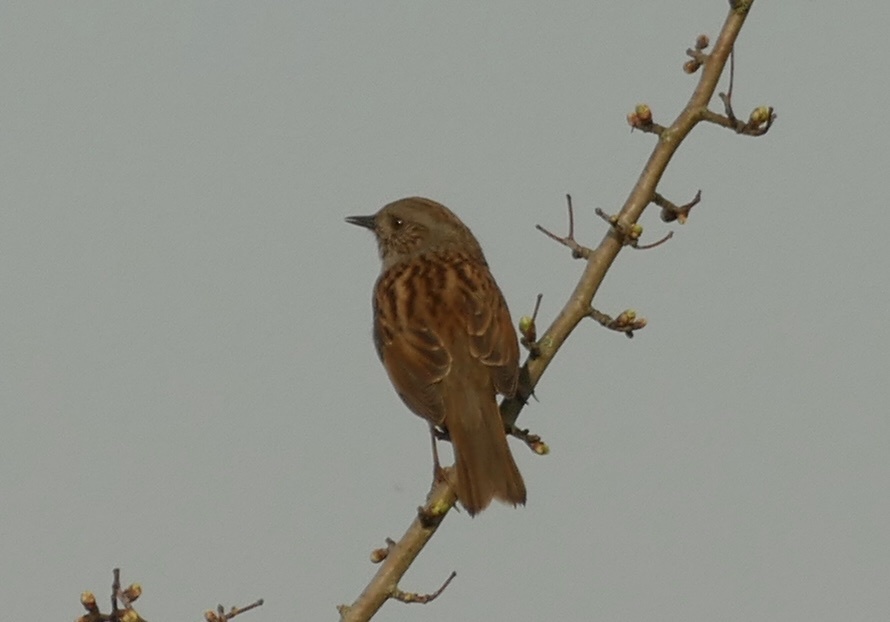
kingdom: Animalia
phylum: Chordata
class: Aves
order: Passeriformes
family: Prunellidae
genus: Prunella
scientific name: Prunella modularis
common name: Dunnock
